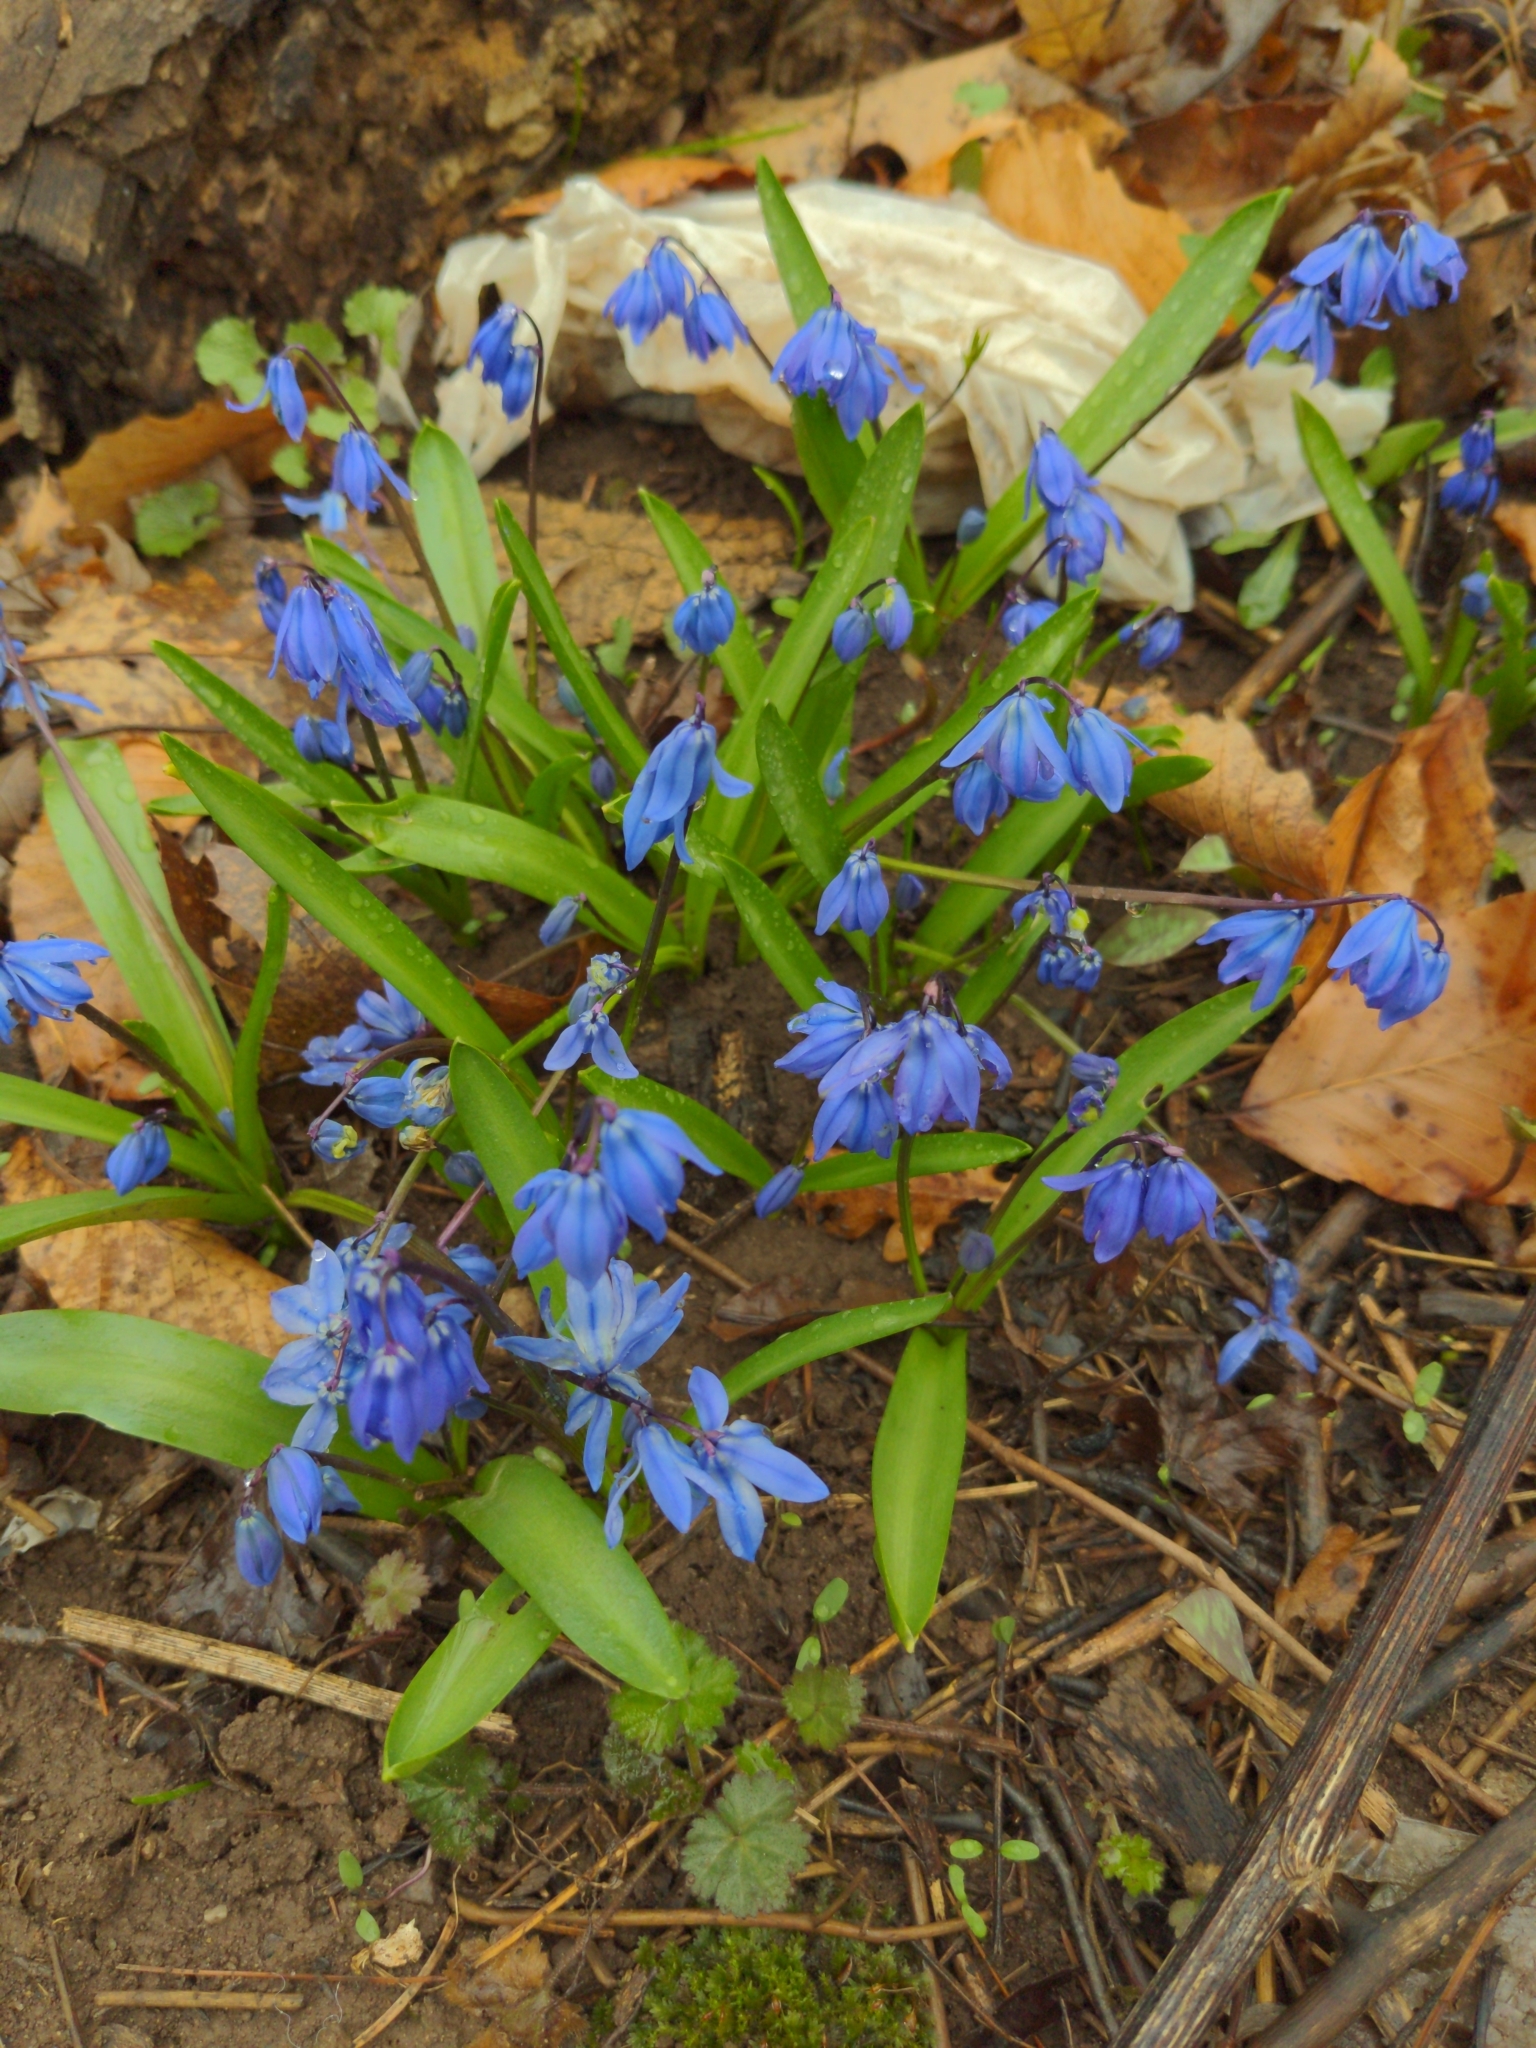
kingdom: Plantae
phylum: Tracheophyta
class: Liliopsida
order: Asparagales
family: Asparagaceae
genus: Scilla
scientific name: Scilla siberica
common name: Siberian squill
